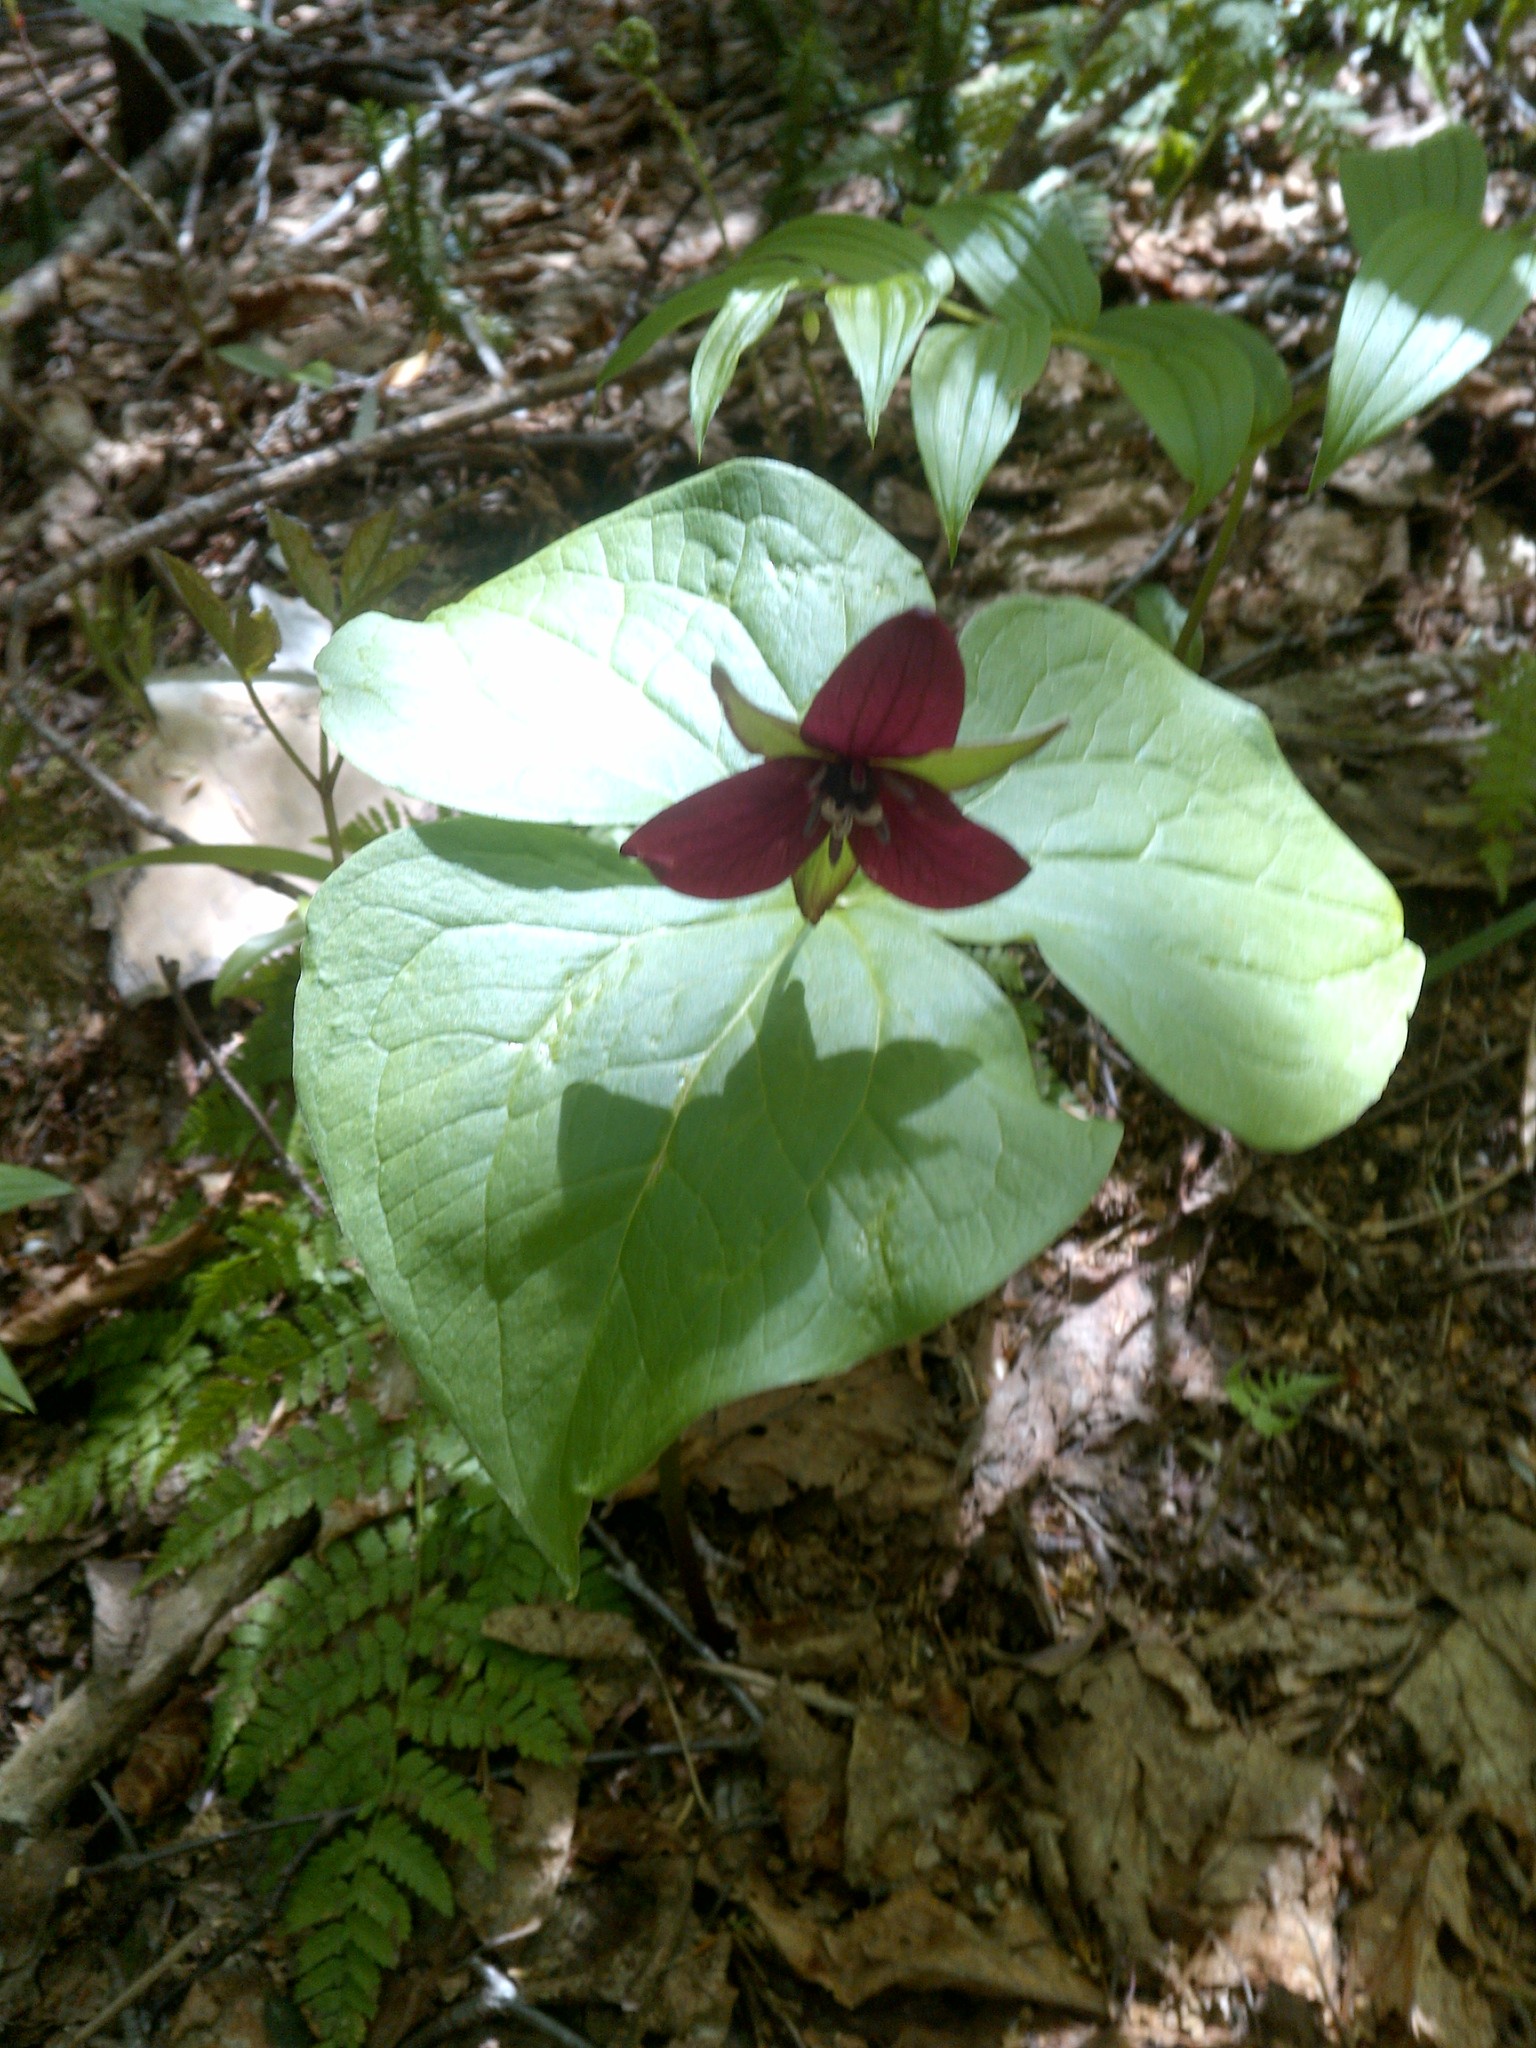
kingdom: Plantae
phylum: Tracheophyta
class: Liliopsida
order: Liliales
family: Melanthiaceae
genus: Trillium
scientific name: Trillium erectum
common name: Purple trillium
